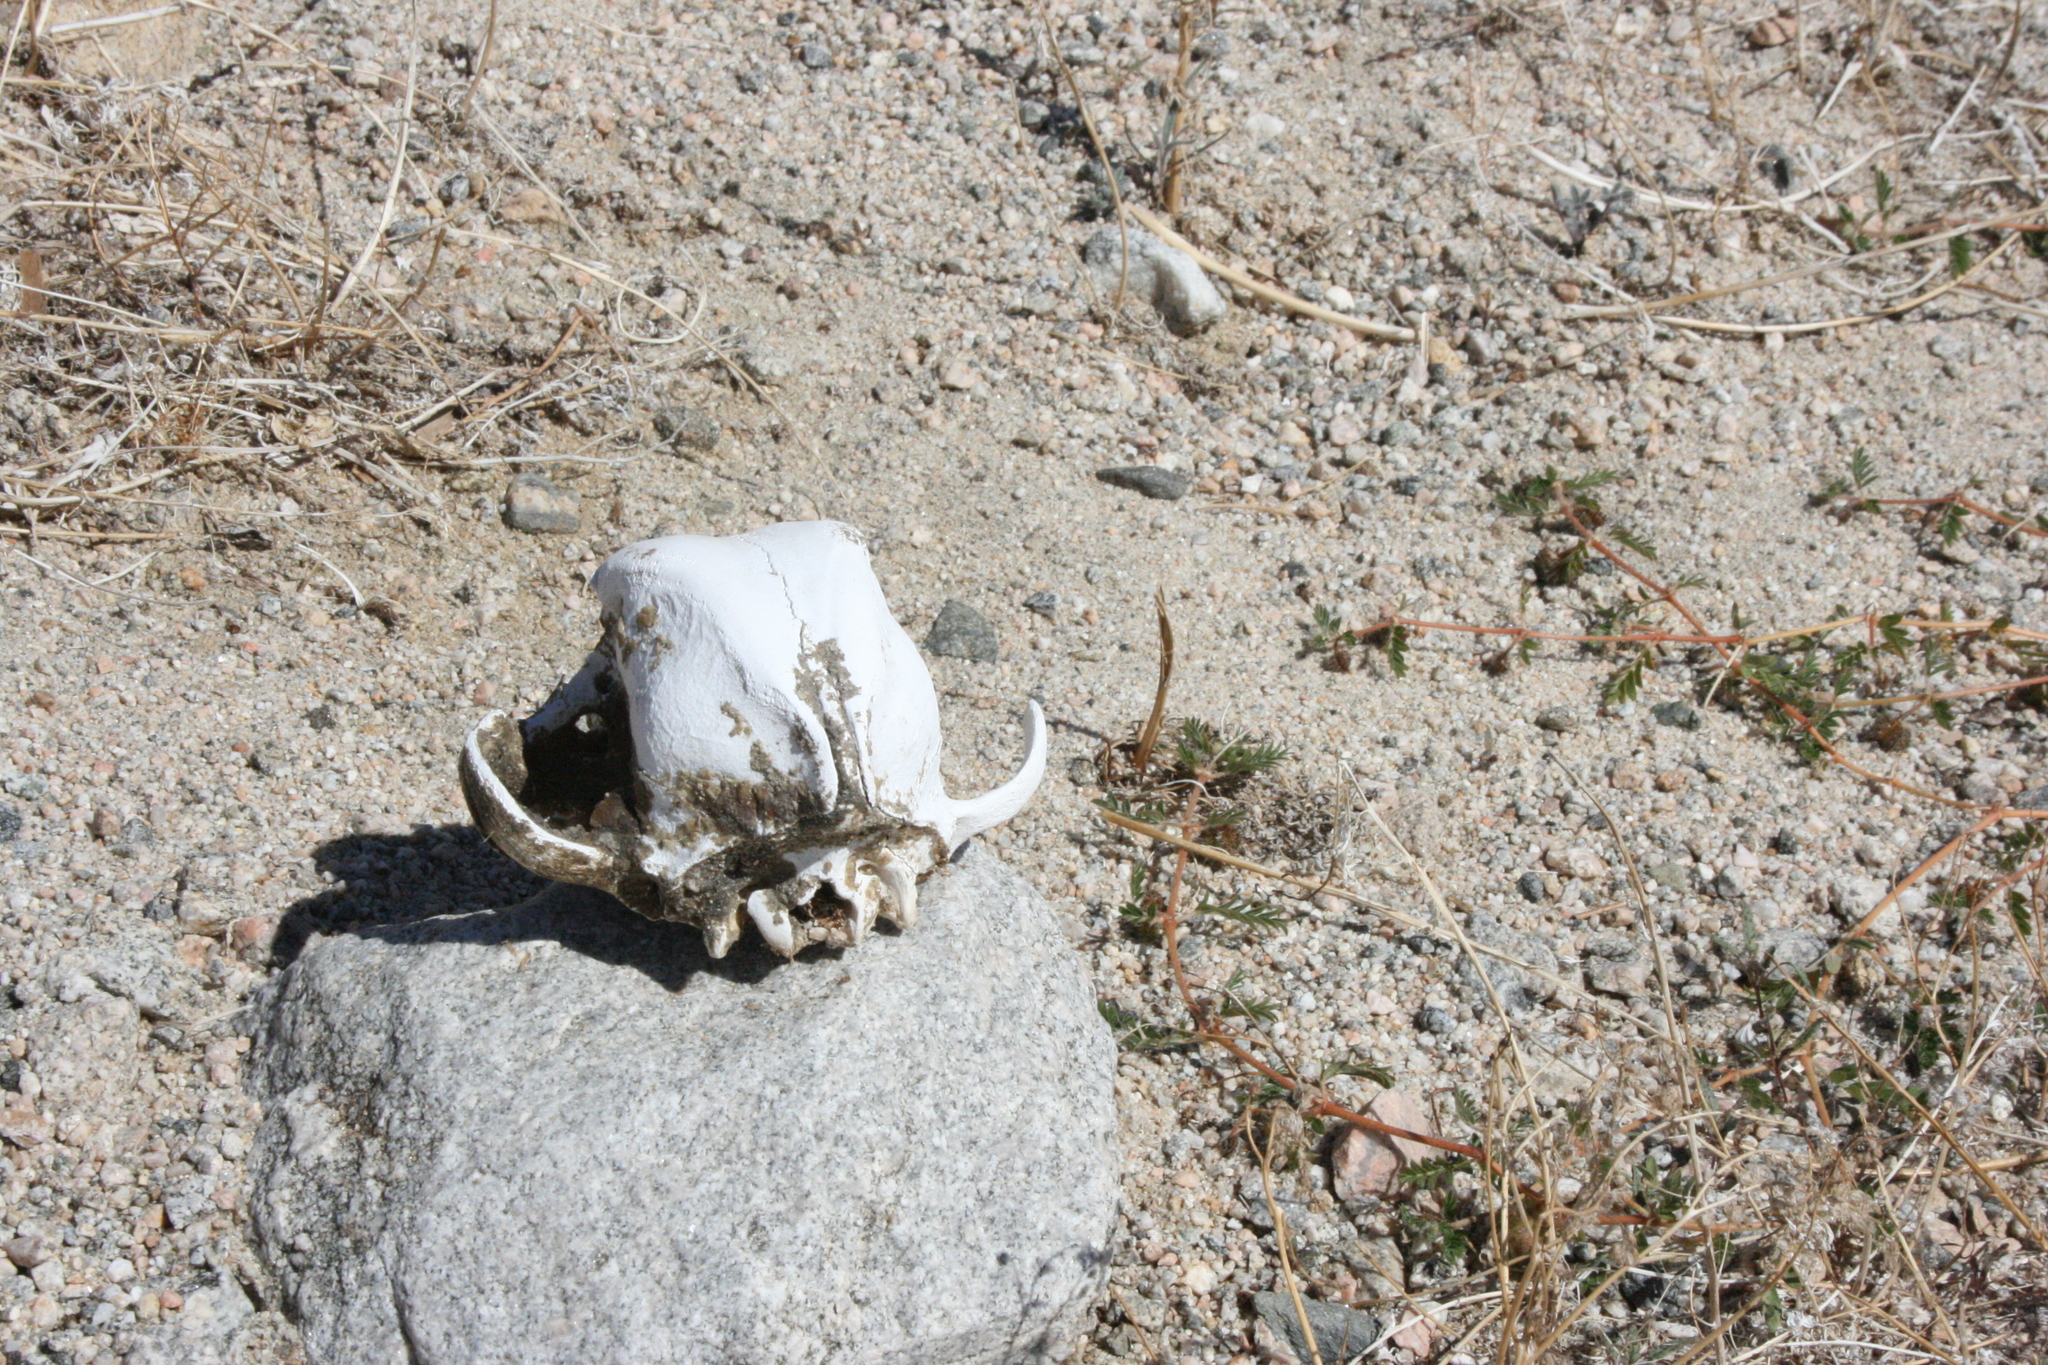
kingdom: Animalia
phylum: Chordata
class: Mammalia
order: Carnivora
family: Canidae
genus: Canis
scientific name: Canis lupus
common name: Gray wolf
